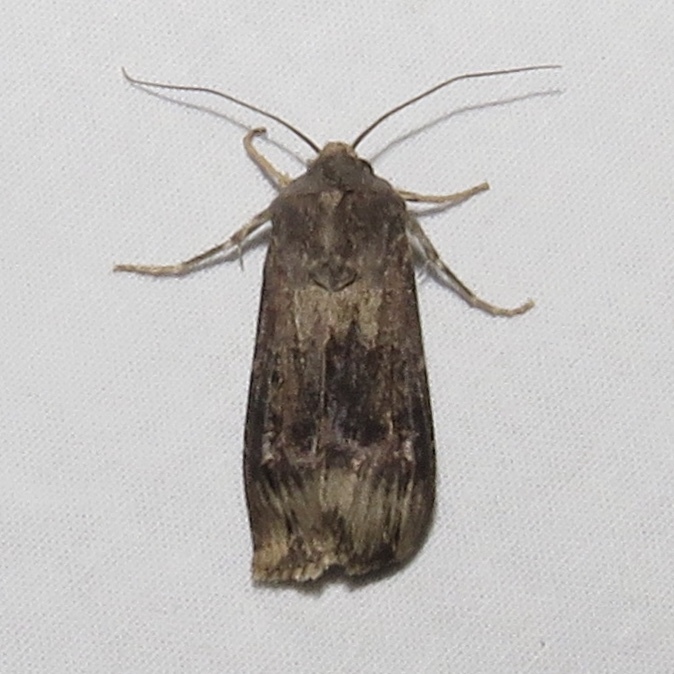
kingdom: Animalia
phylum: Arthropoda
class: Insecta
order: Lepidoptera
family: Noctuidae
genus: Agrotis
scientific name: Agrotis ipsilon
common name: Dark sword-grass
